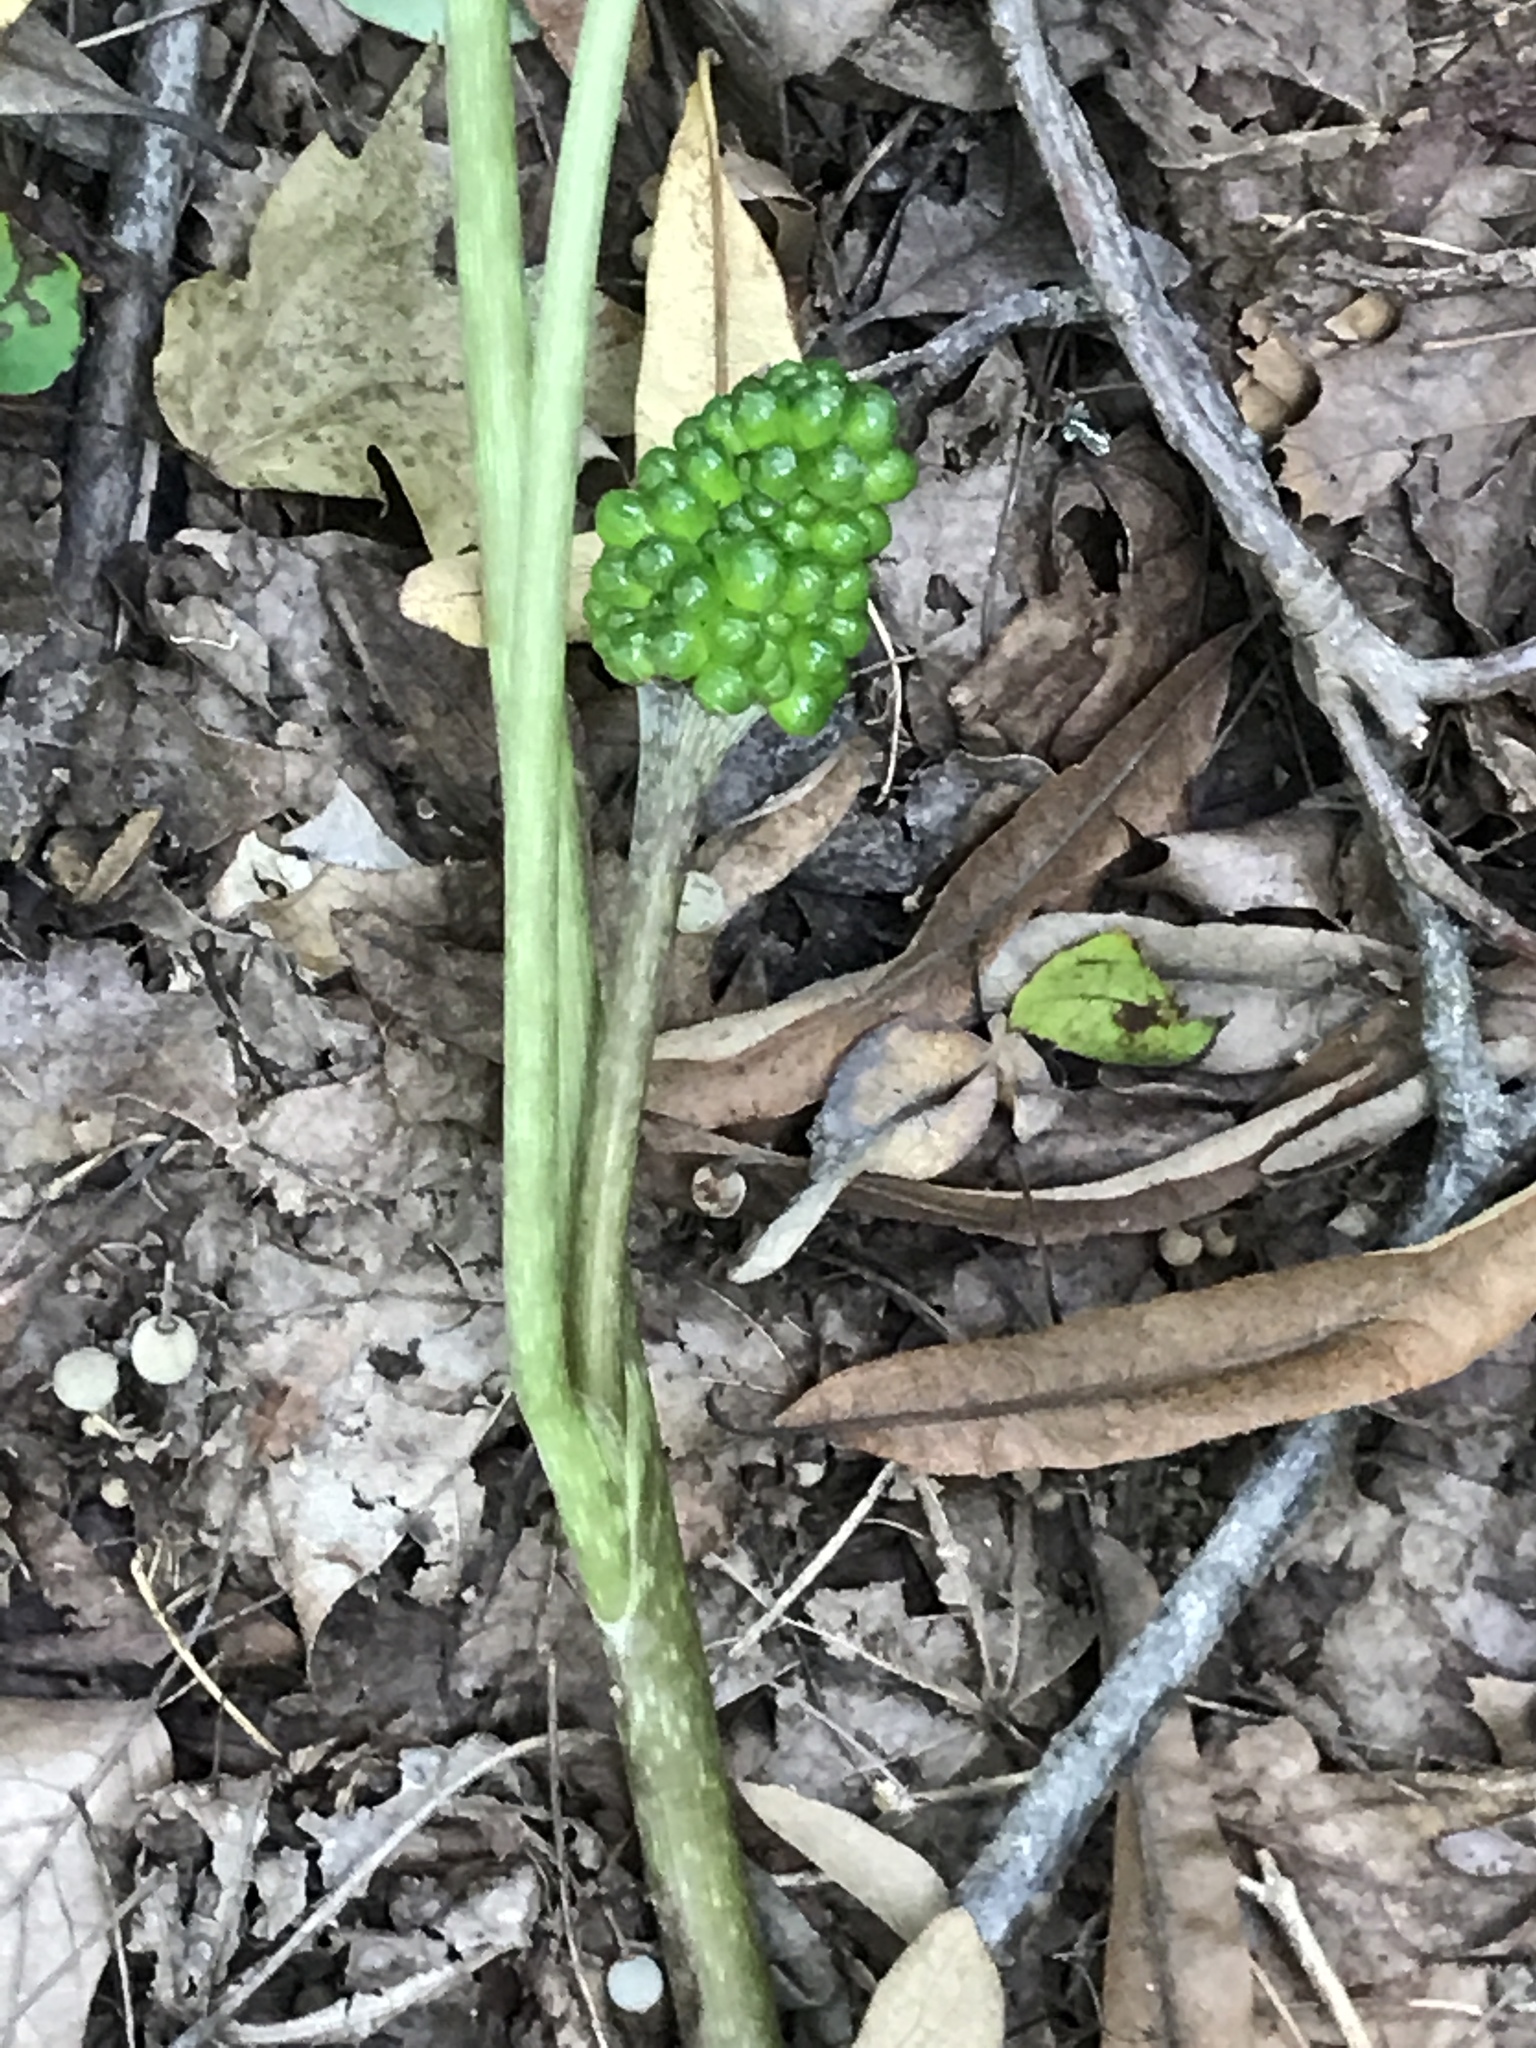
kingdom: Plantae
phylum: Tracheophyta
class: Liliopsida
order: Alismatales
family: Araceae
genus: Arisaema
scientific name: Arisaema triphyllum
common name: Jack-in-the-pulpit
